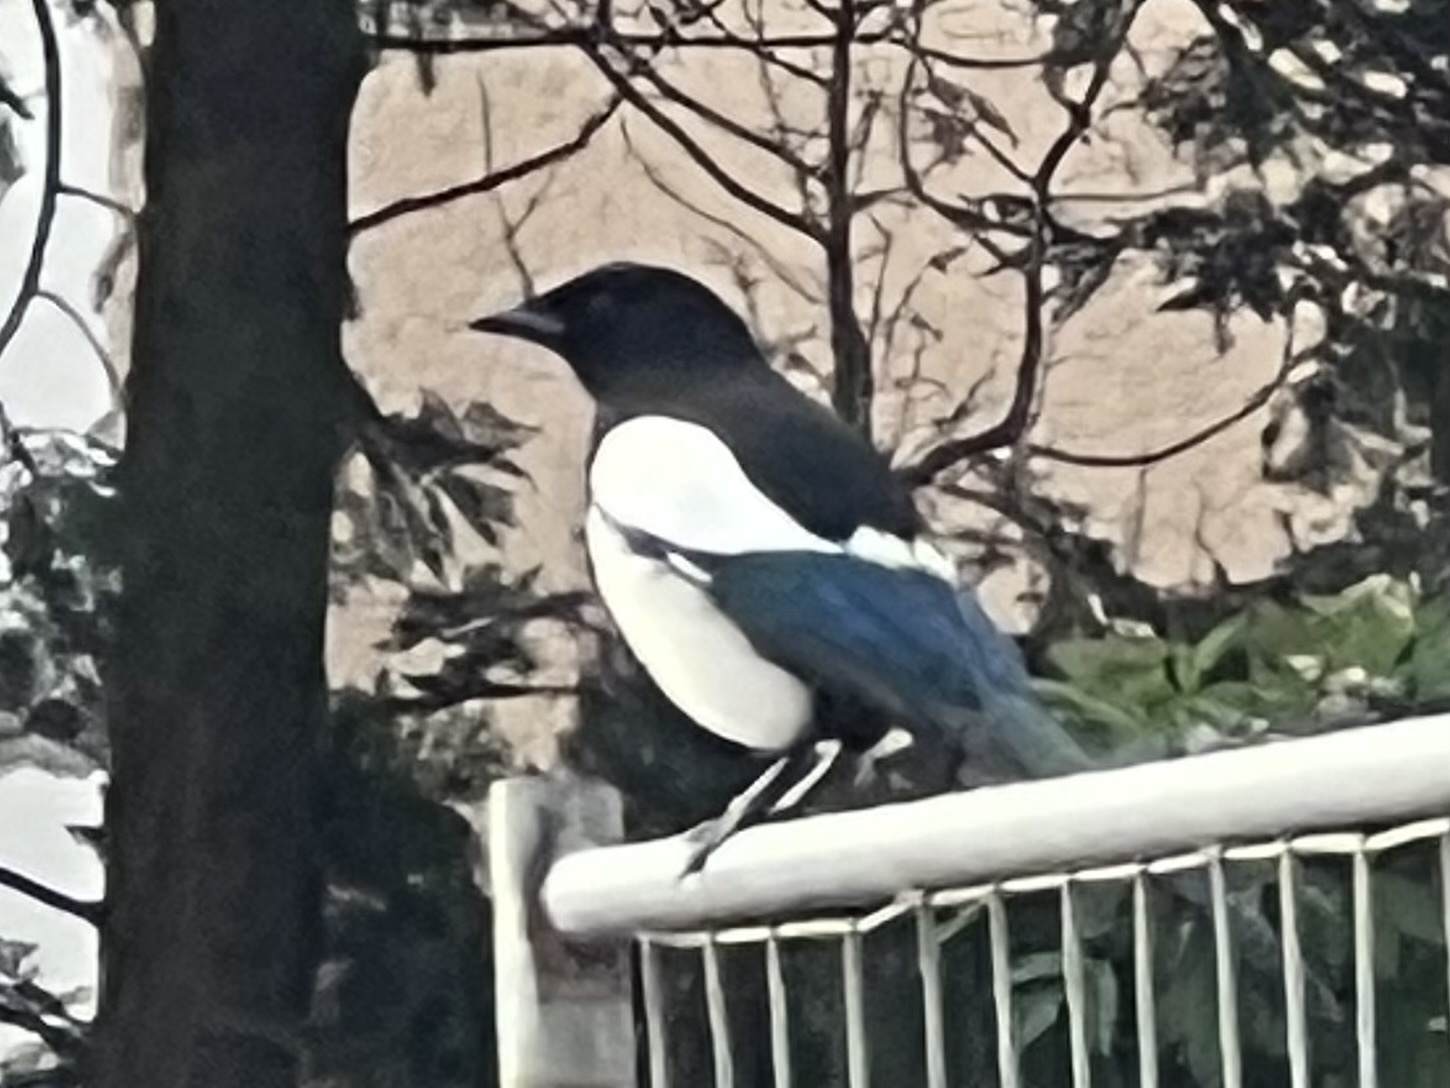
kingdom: Animalia
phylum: Chordata
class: Aves
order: Passeriformes
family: Corvidae
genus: Pica
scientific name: Pica pica
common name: Eurasian magpie
